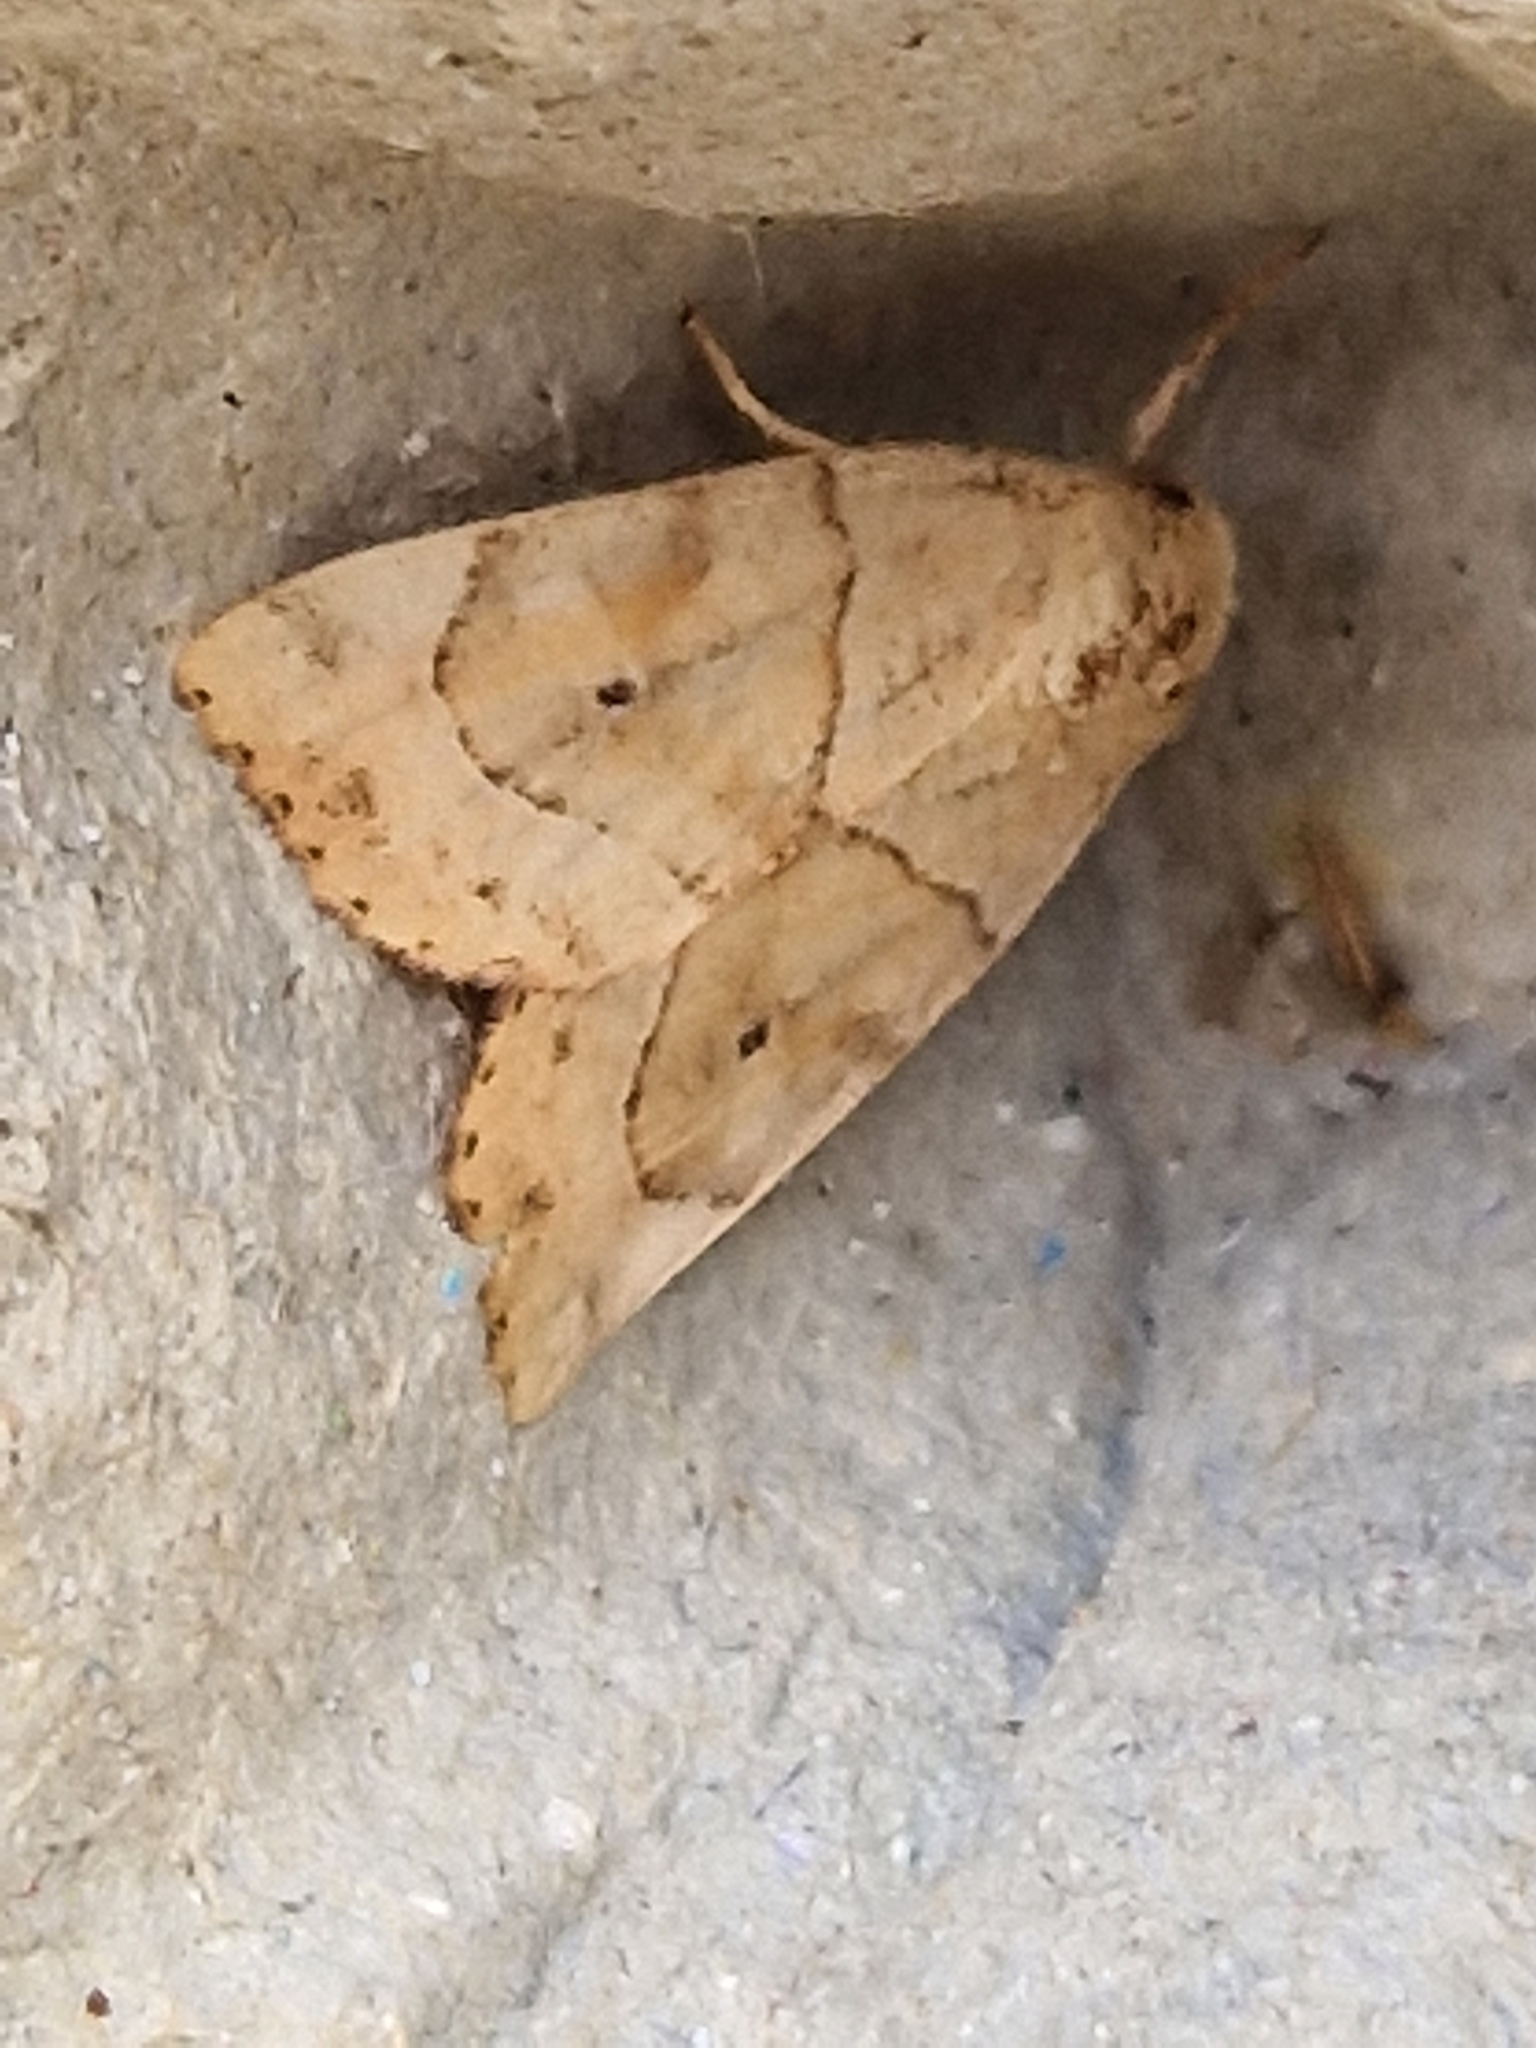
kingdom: Animalia
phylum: Arthropoda
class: Insecta
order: Lepidoptera
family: Noctuidae
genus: Cosmia
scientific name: Cosmia trapezina
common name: Dun-bar
